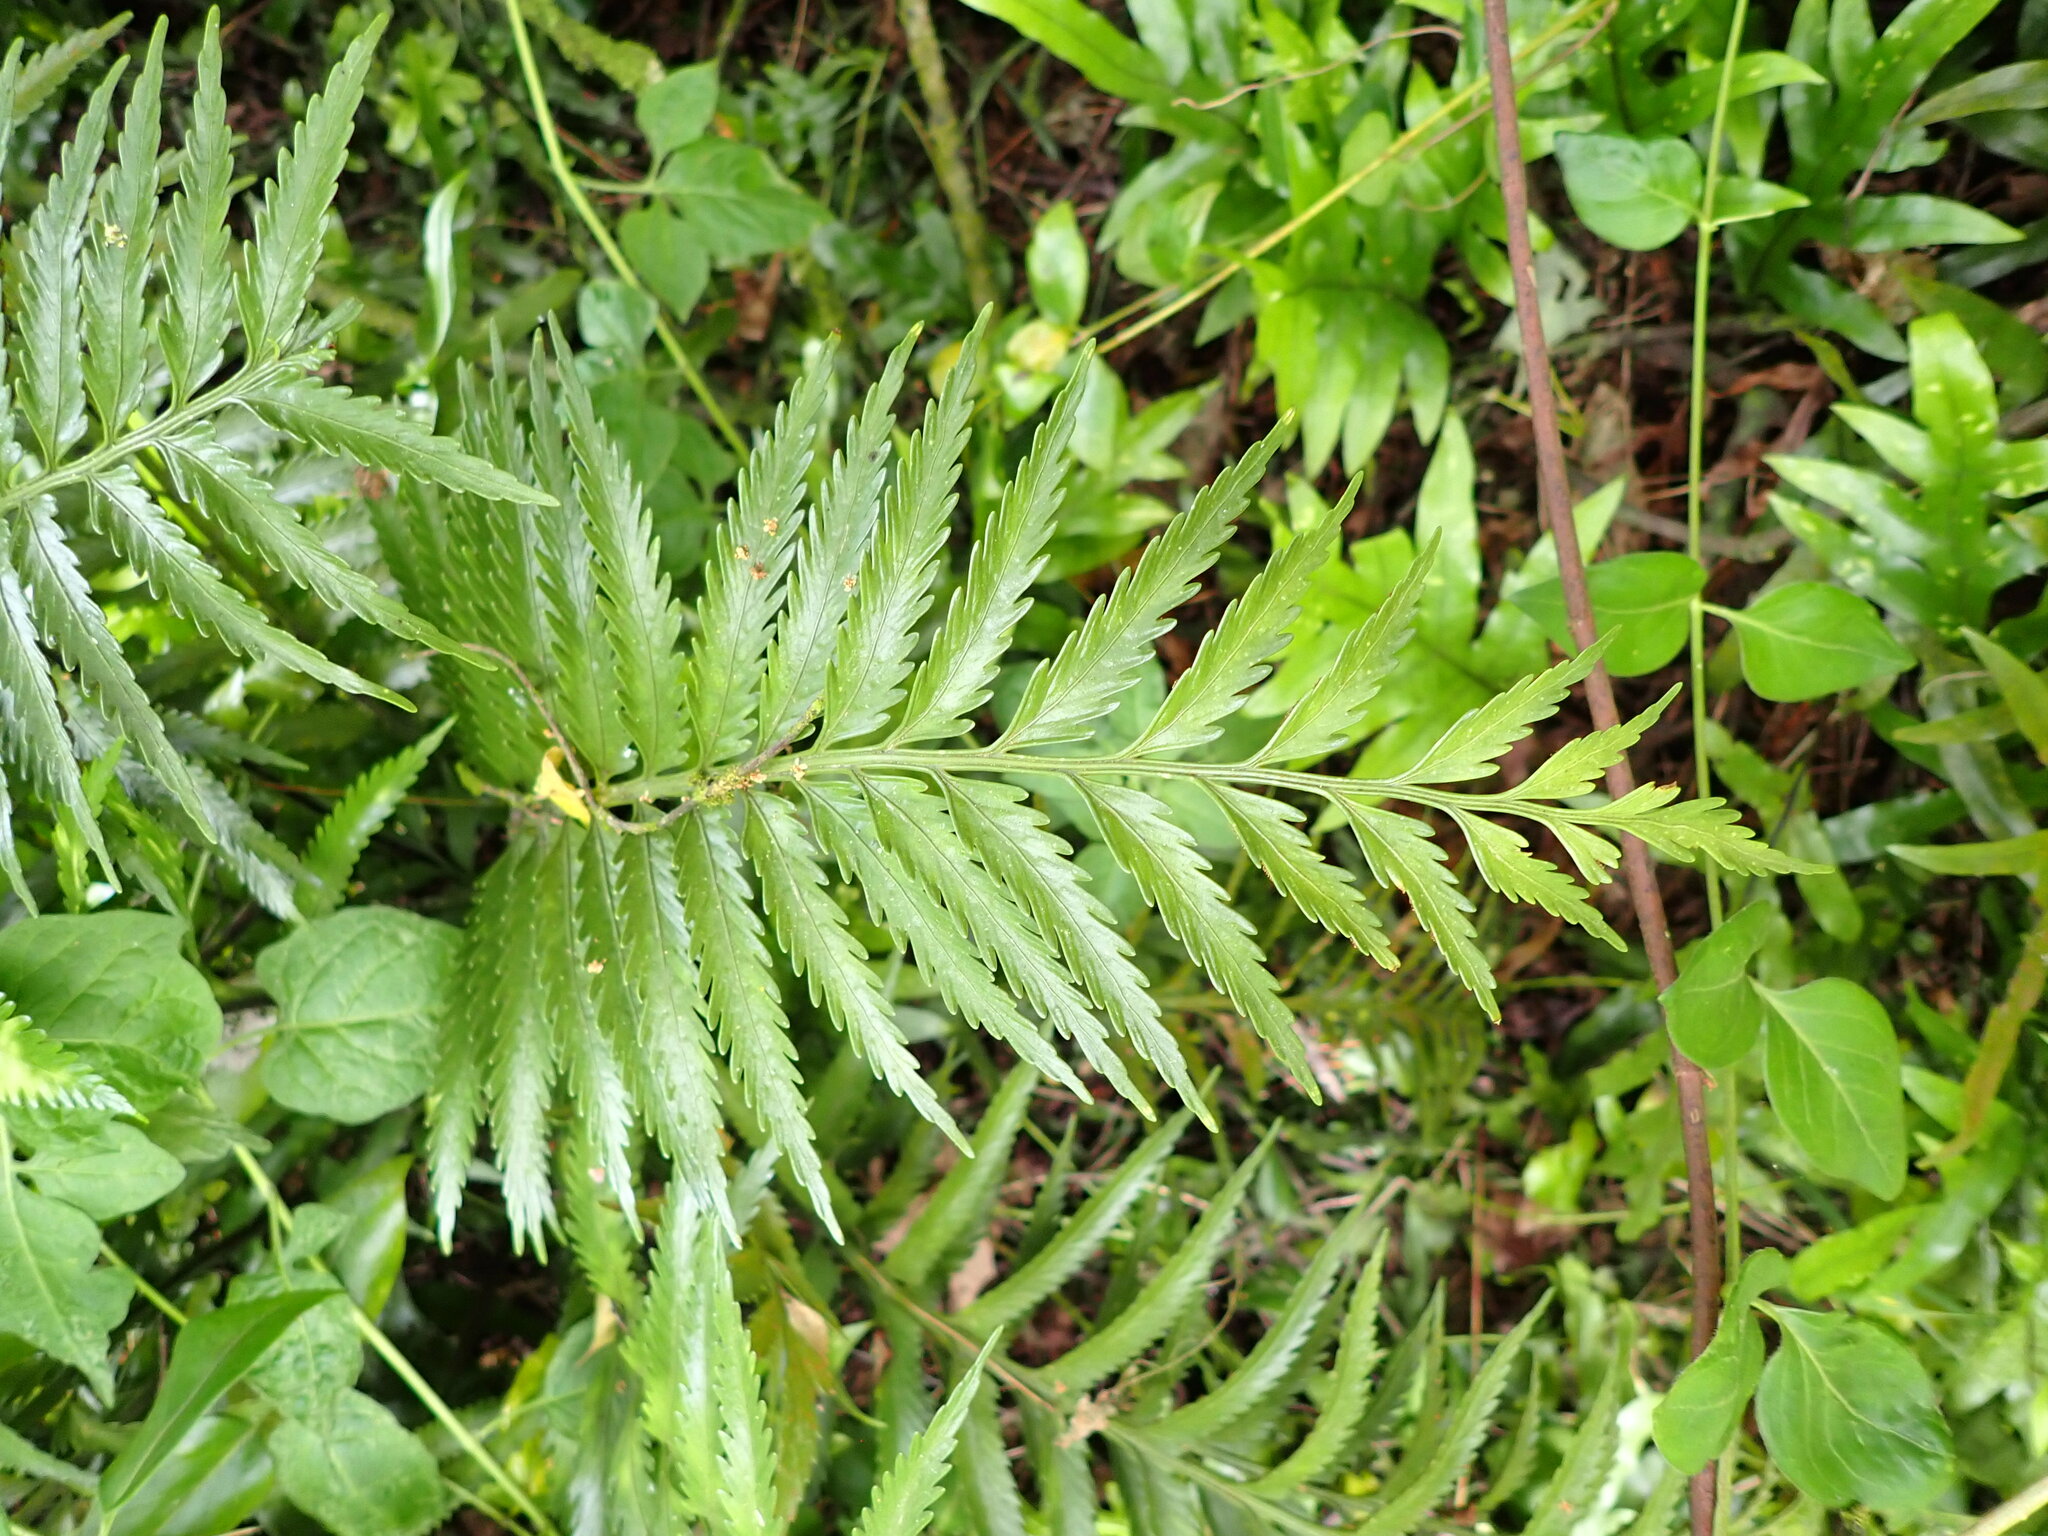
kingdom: Plantae
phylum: Tracheophyta
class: Polypodiopsida
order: Polypodiales
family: Aspleniaceae
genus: Asplenium
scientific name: Asplenium scleroprium
